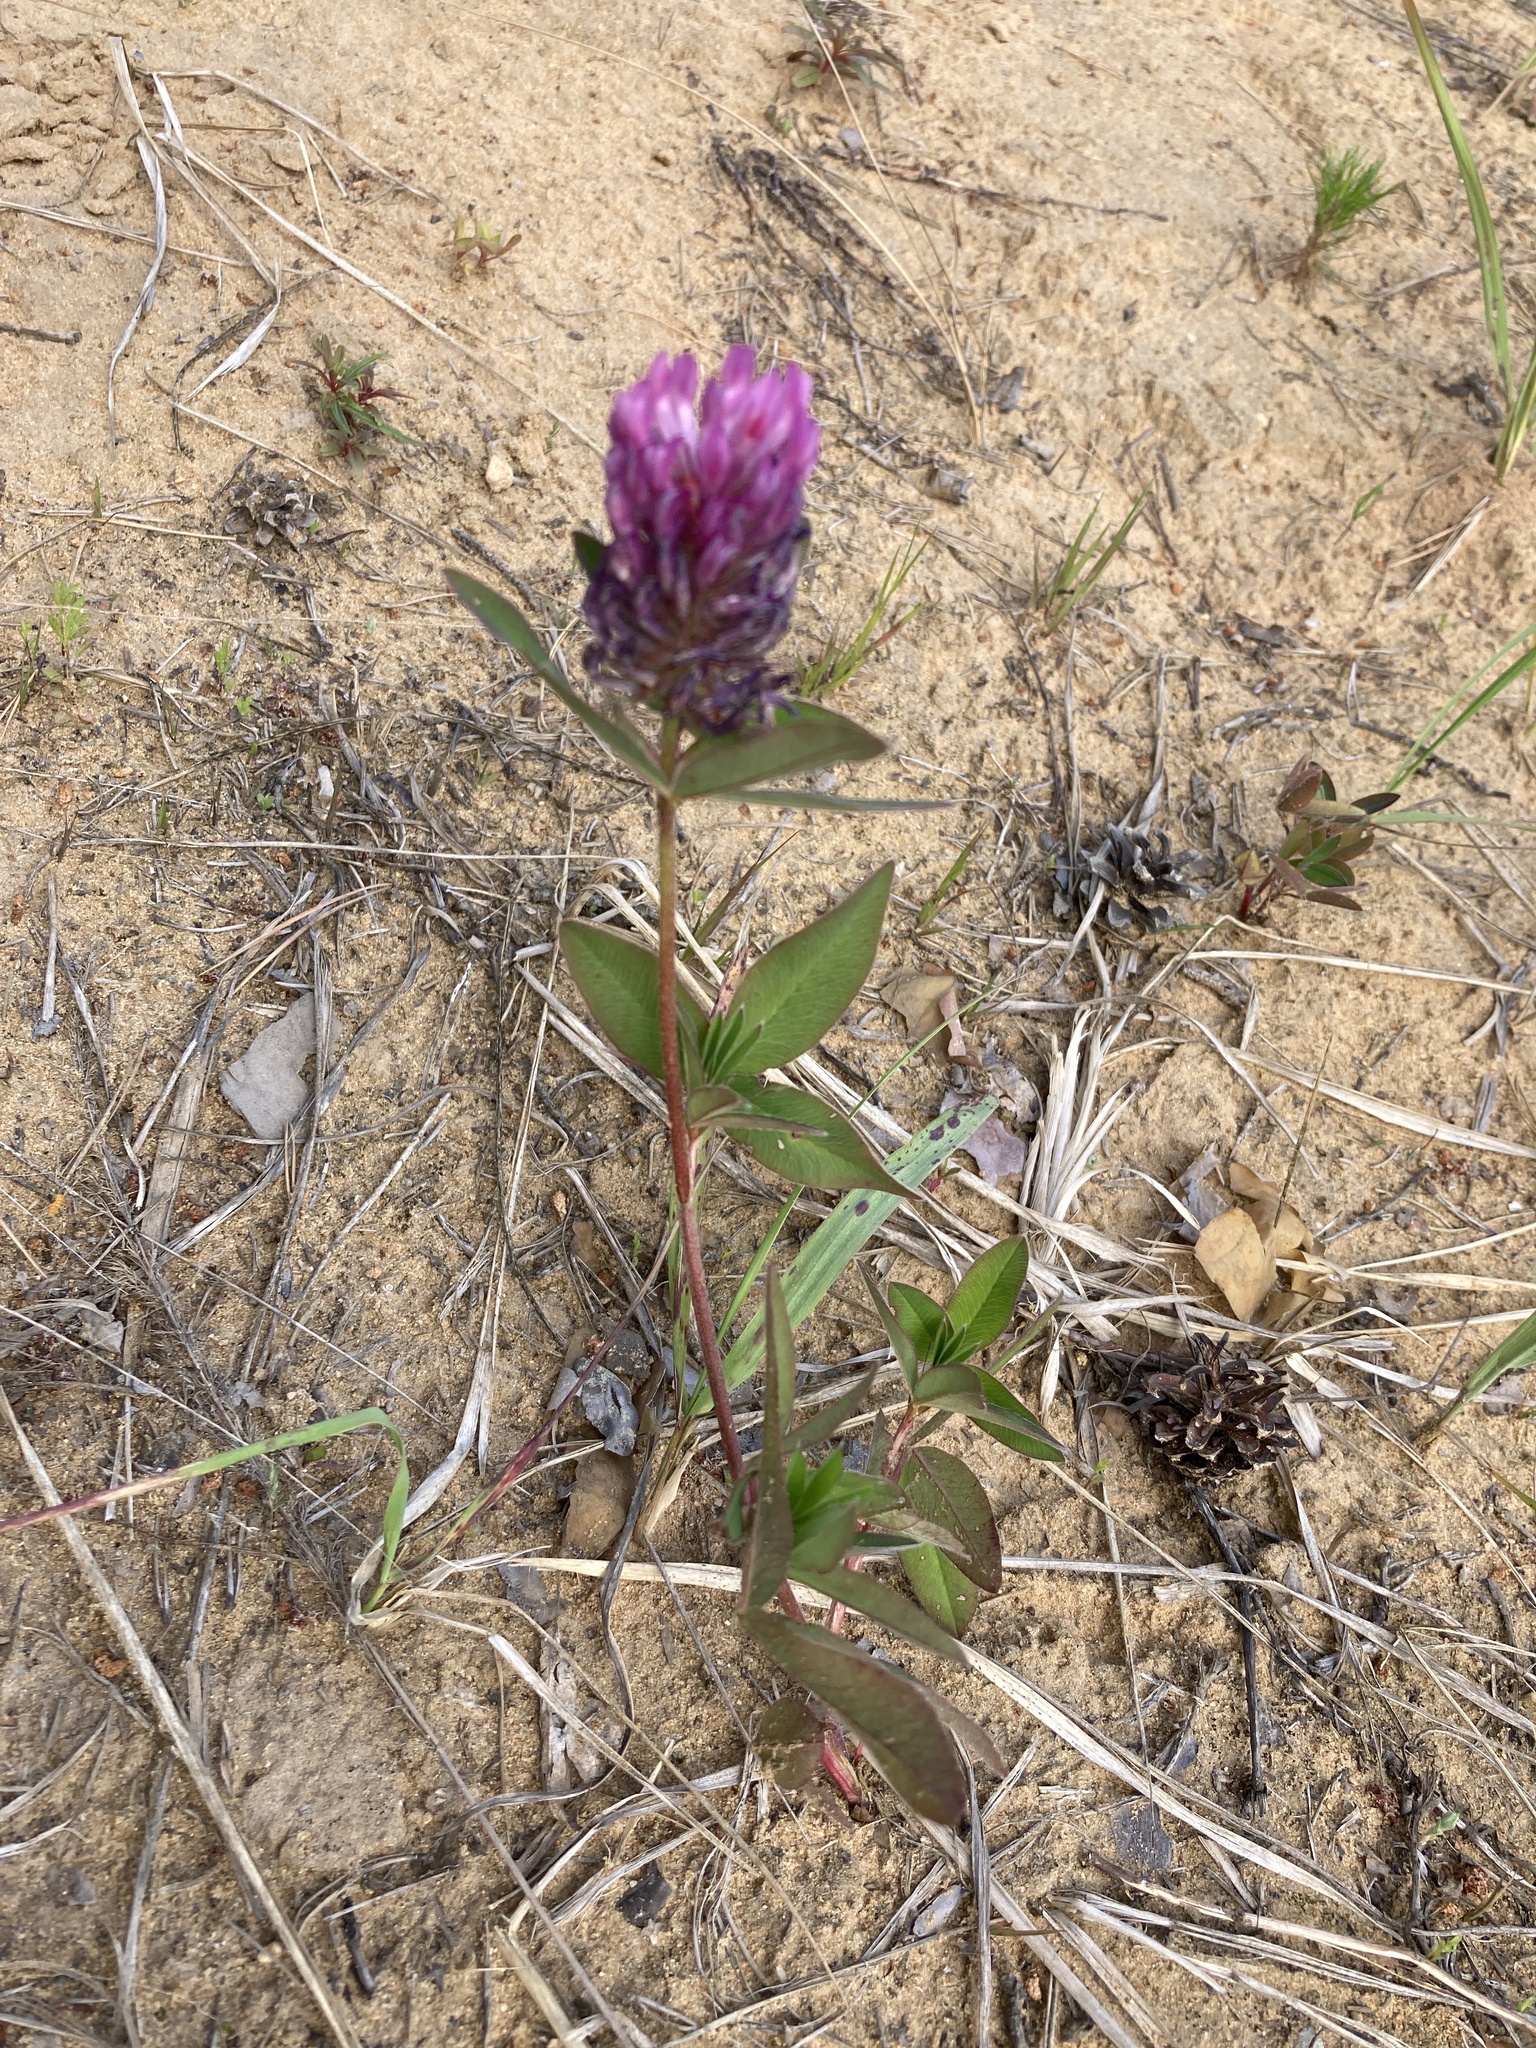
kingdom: Plantae
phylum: Tracheophyta
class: Magnoliopsida
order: Fabales
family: Fabaceae
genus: Trifolium
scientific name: Trifolium pratense
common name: Red clover
